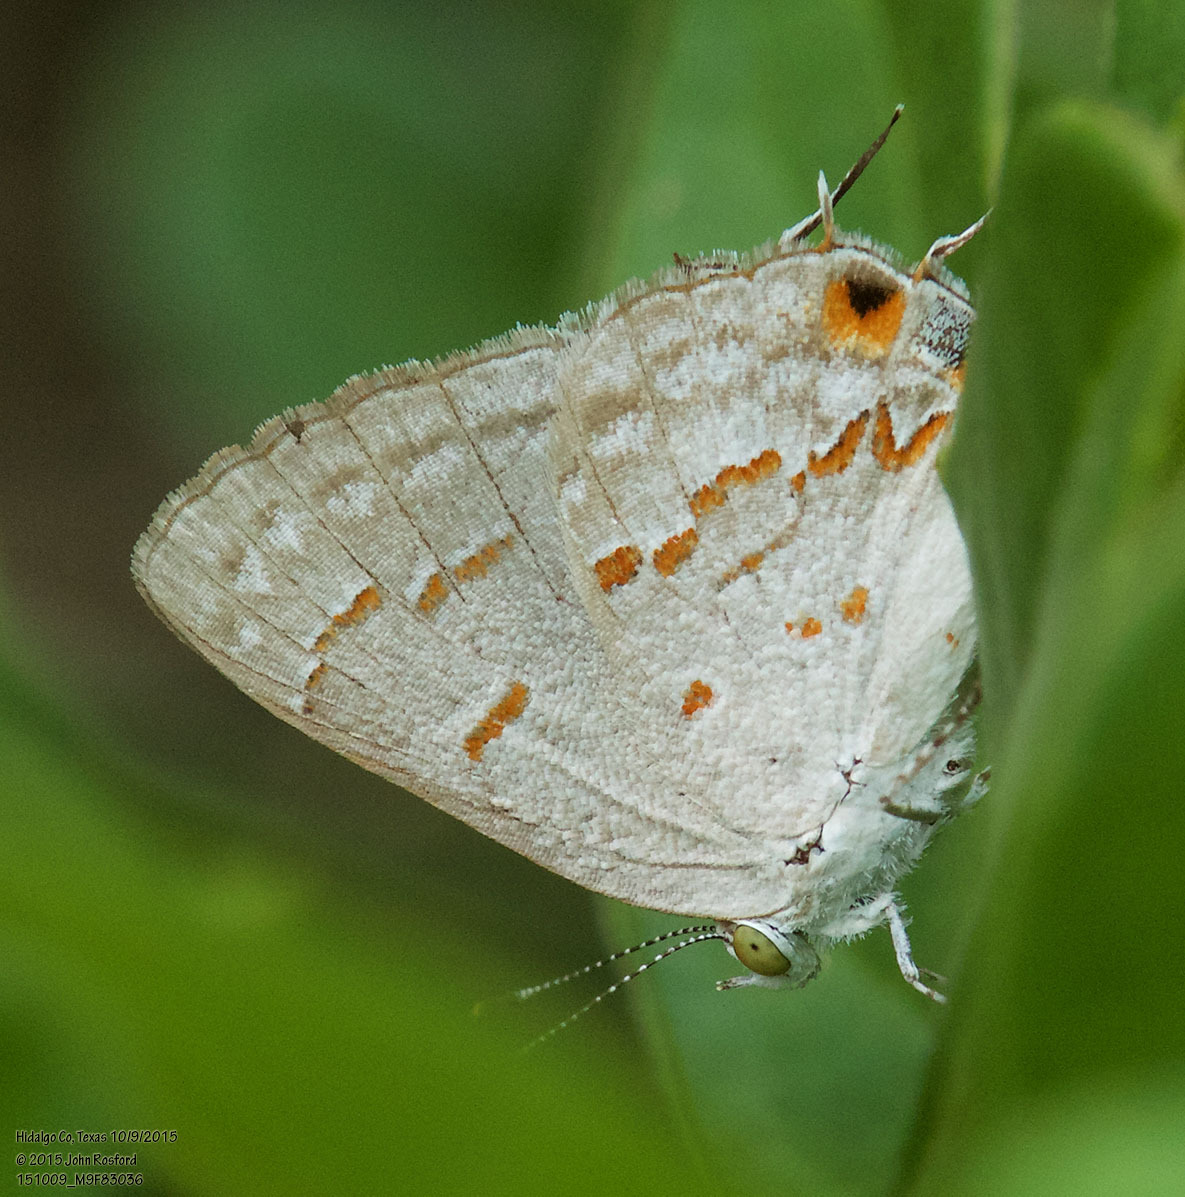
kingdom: Animalia
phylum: Arthropoda
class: Insecta
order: Lepidoptera
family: Lycaenidae
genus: Ministrymon
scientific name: Ministrymon clytie
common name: Clytie ministreak
